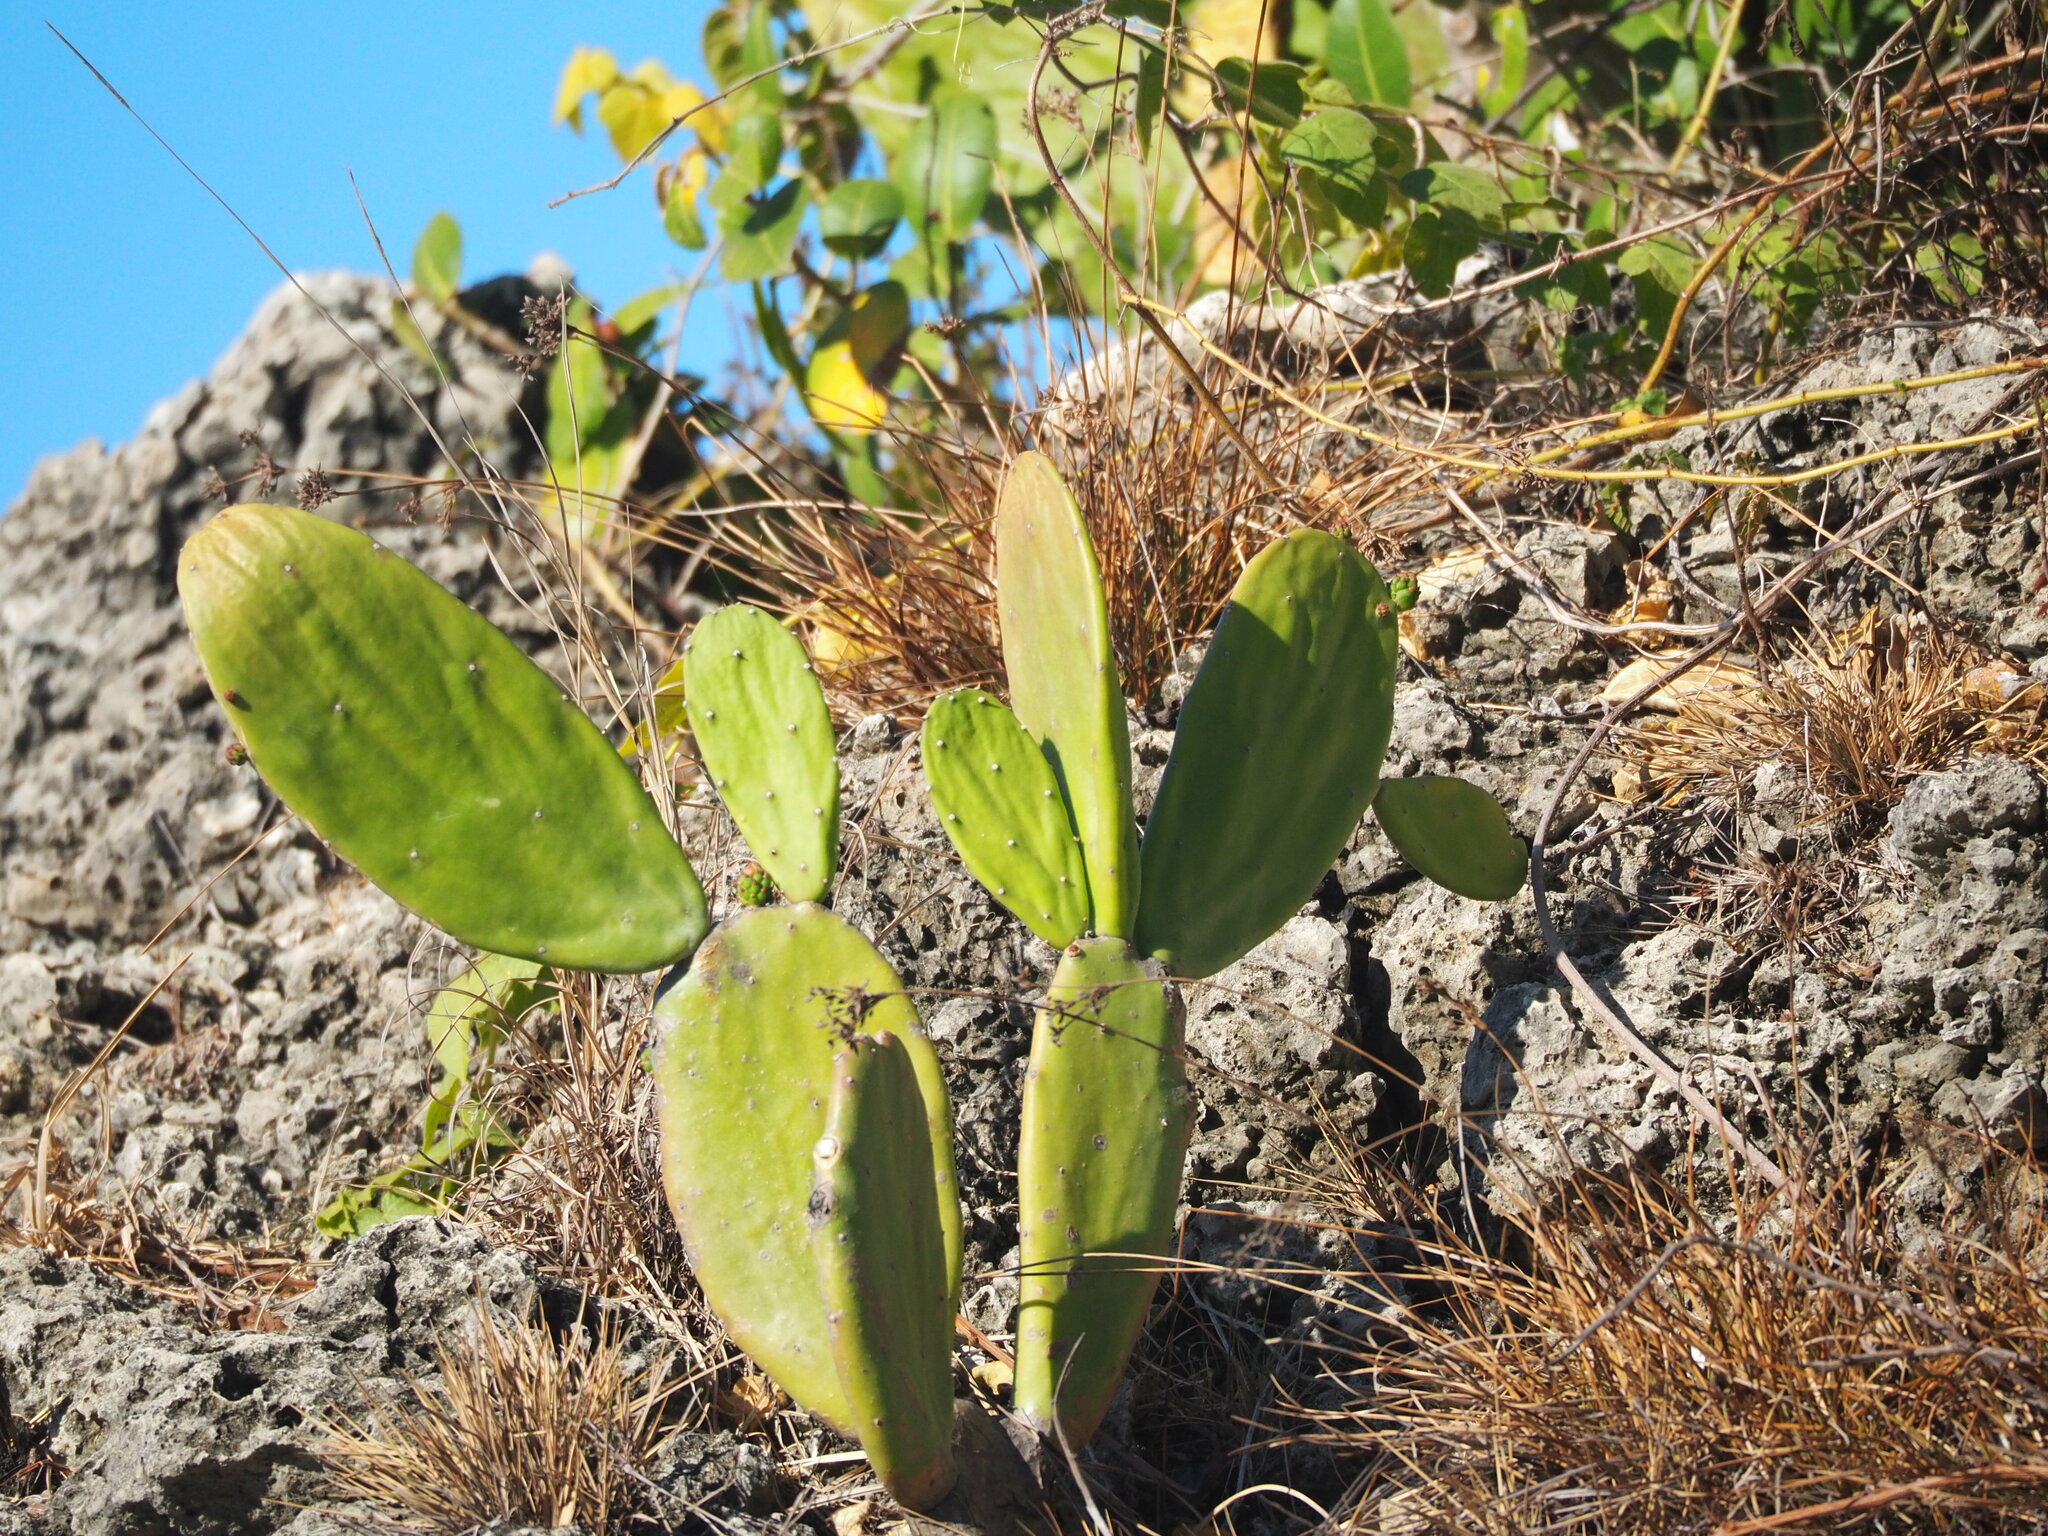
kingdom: Plantae
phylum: Tracheophyta
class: Magnoliopsida
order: Caryophyllales
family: Cactaceae
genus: Opuntia
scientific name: Opuntia cochenillifera
